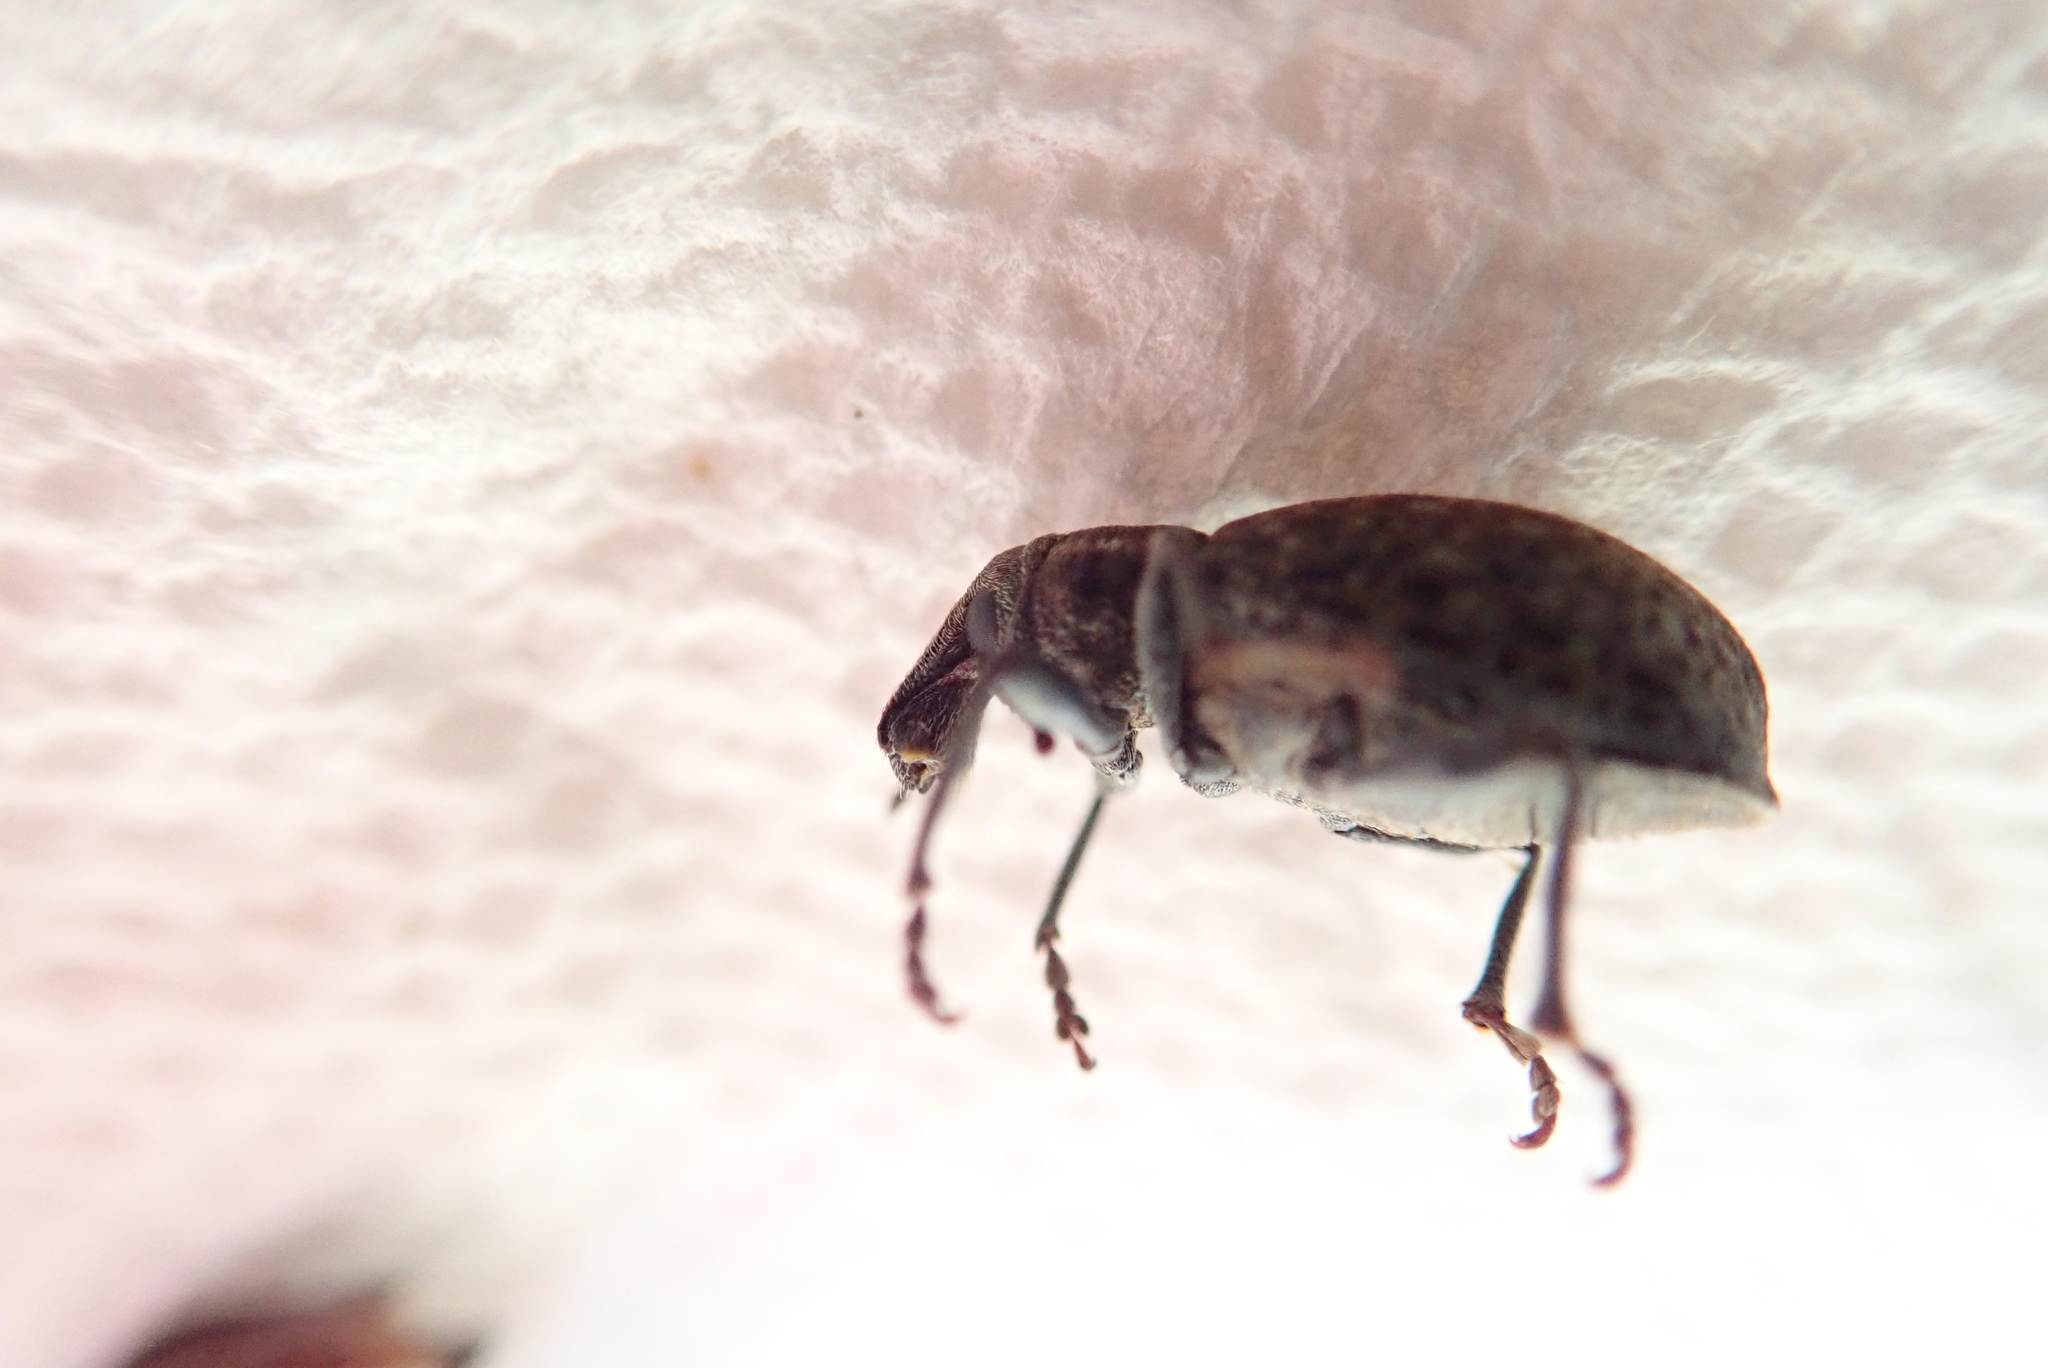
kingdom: Animalia
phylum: Arthropoda
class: Insecta
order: Coleoptera
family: Curculionidae
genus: Trichalophus
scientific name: Trichalophus alternatus
